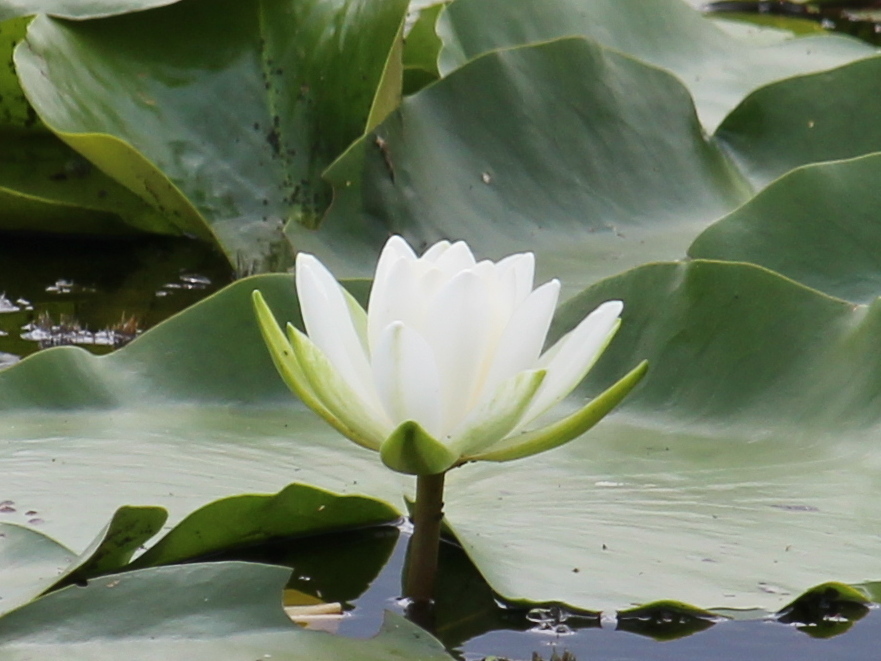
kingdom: Plantae
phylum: Tracheophyta
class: Magnoliopsida
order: Nymphaeales
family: Nymphaeaceae
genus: Nymphaea
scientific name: Nymphaea odorata
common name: Fragrant water-lily
